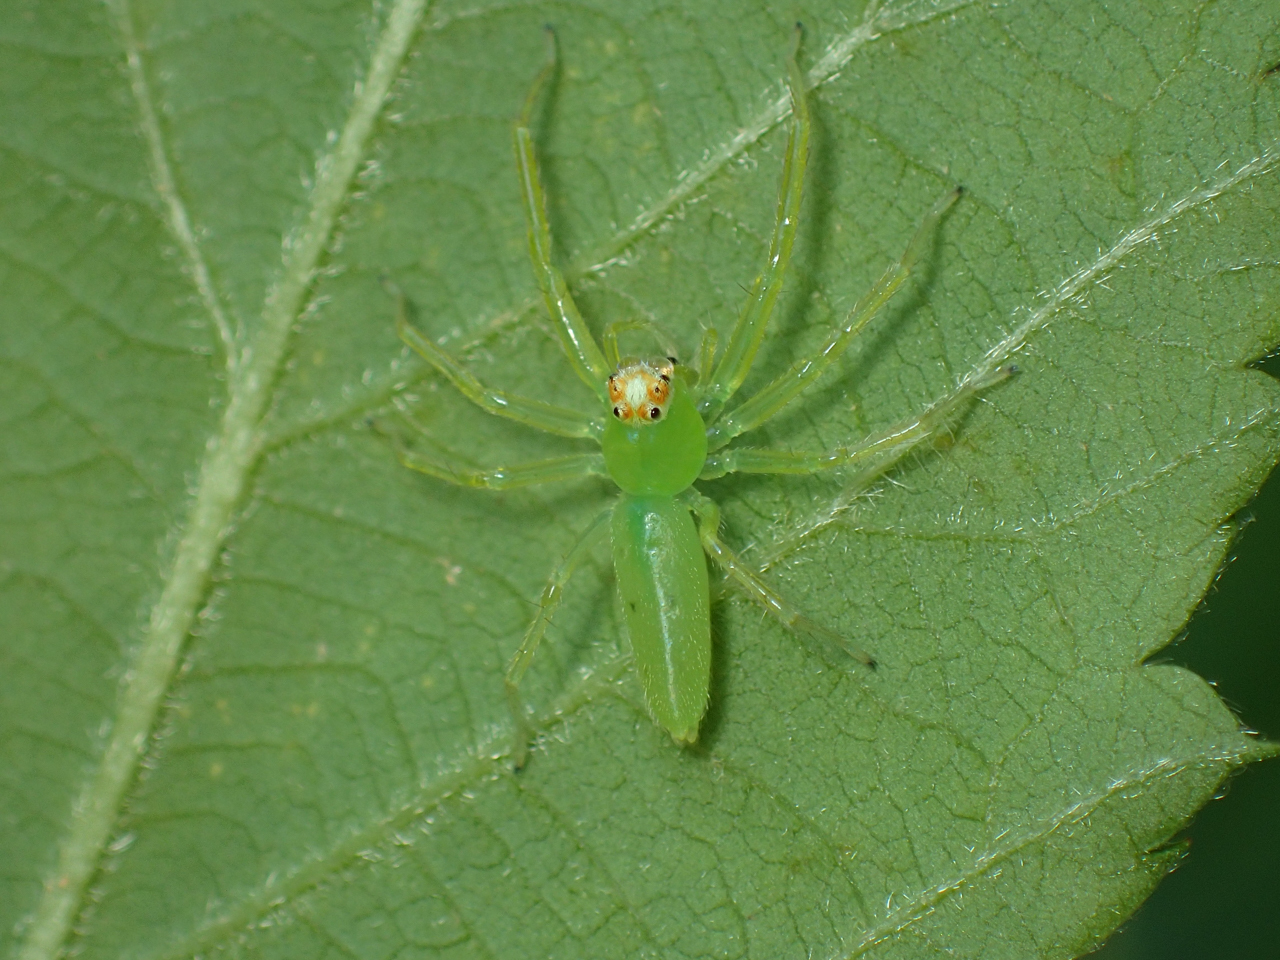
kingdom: Animalia
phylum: Arthropoda
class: Arachnida
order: Araneae
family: Salticidae
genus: Lyssomanes
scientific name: Lyssomanes viridis
